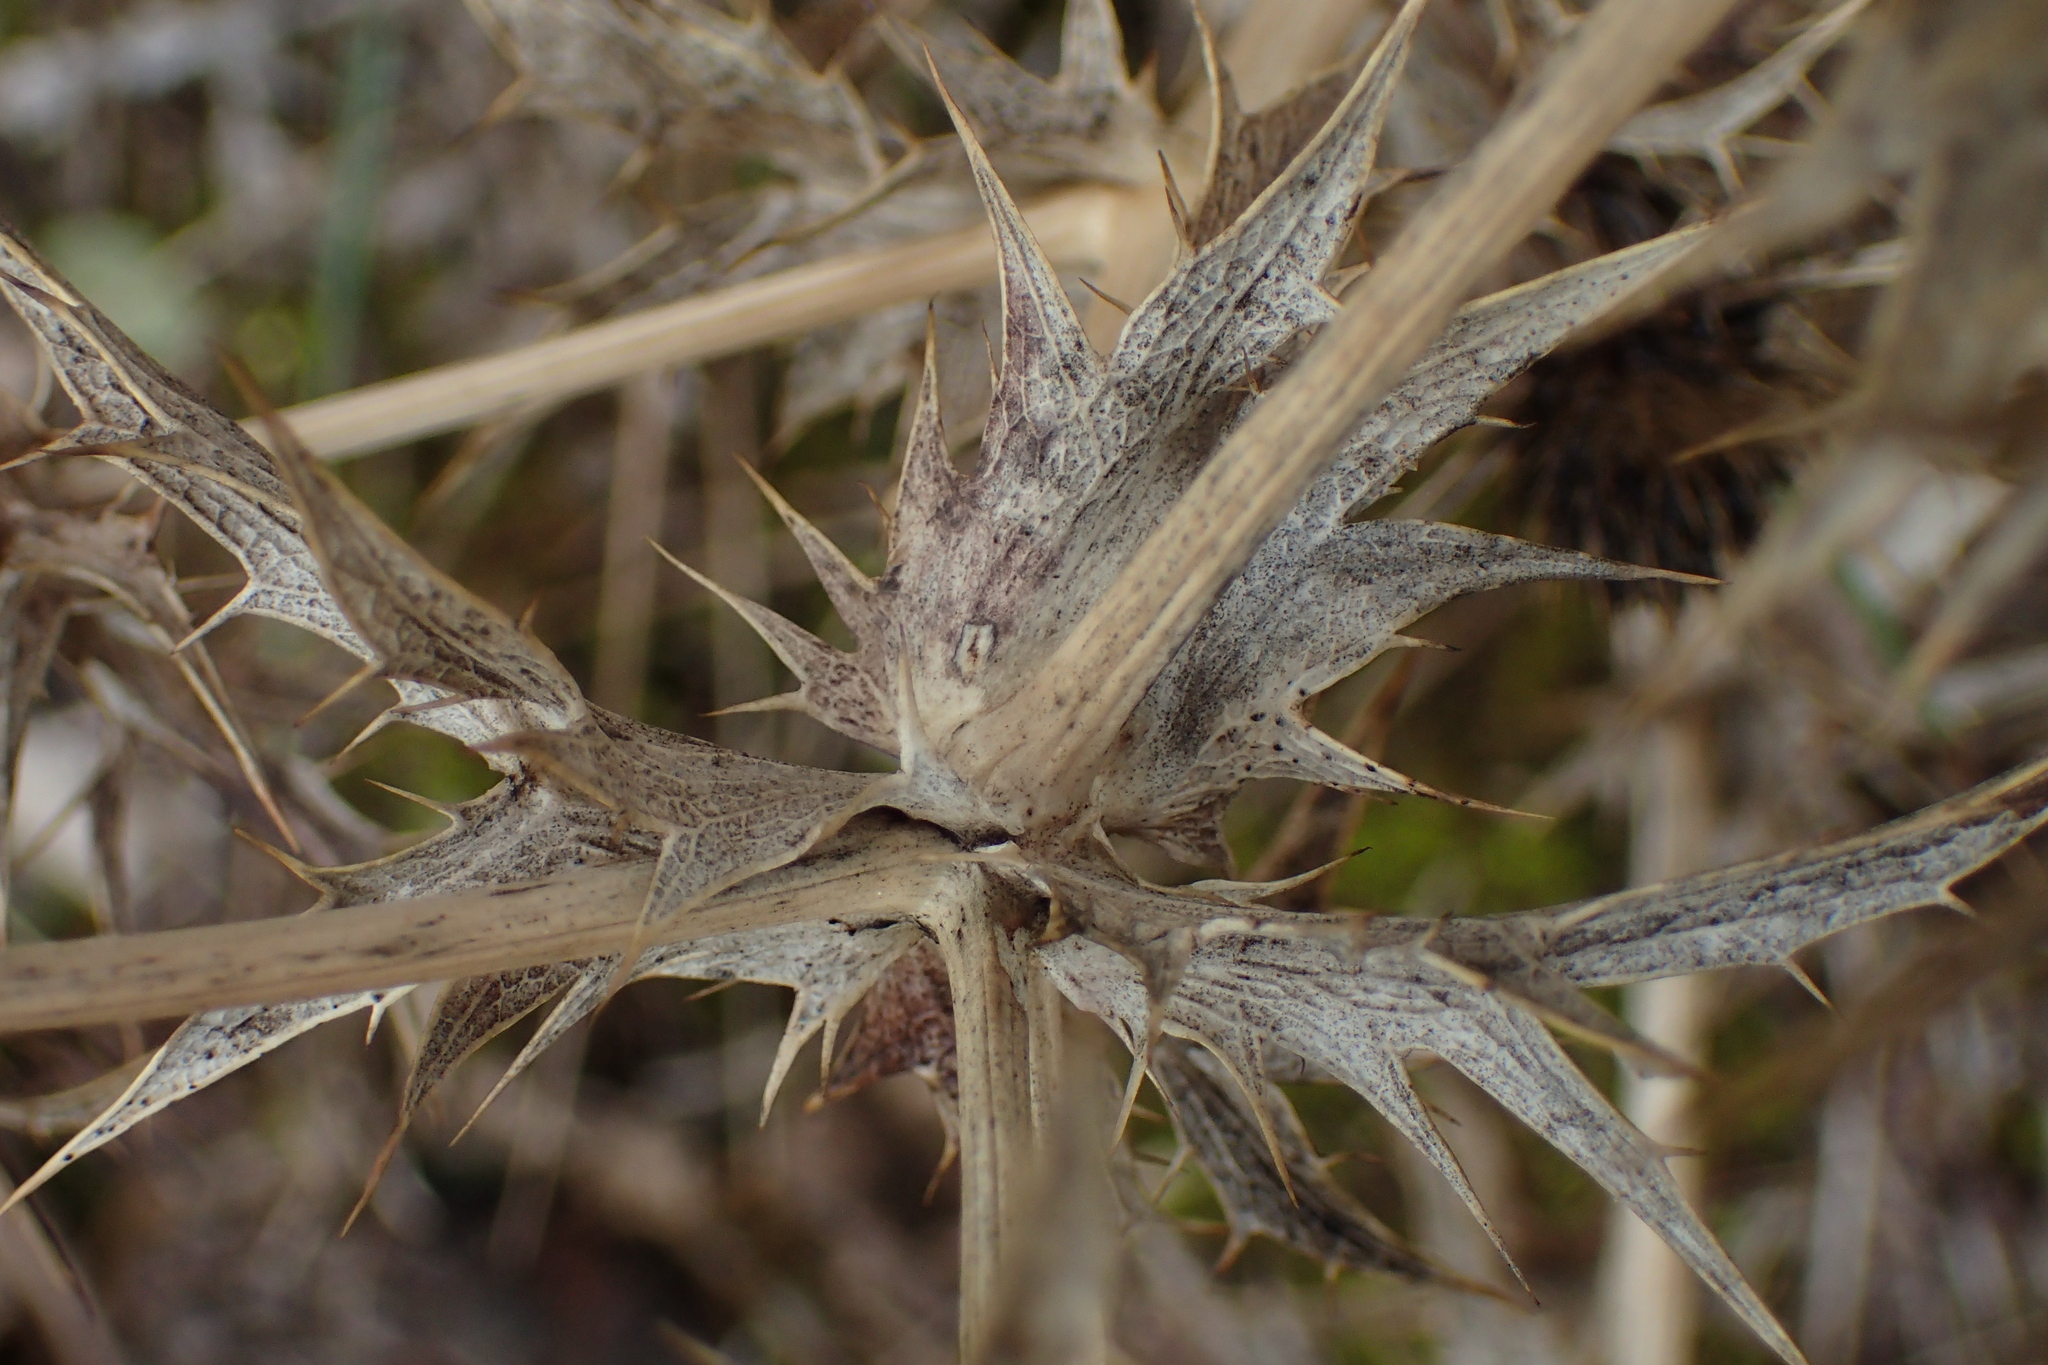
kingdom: Plantae
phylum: Tracheophyta
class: Magnoliopsida
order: Apiales
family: Apiaceae
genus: Eryngium
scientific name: Eryngium campestre
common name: Field eryngo
